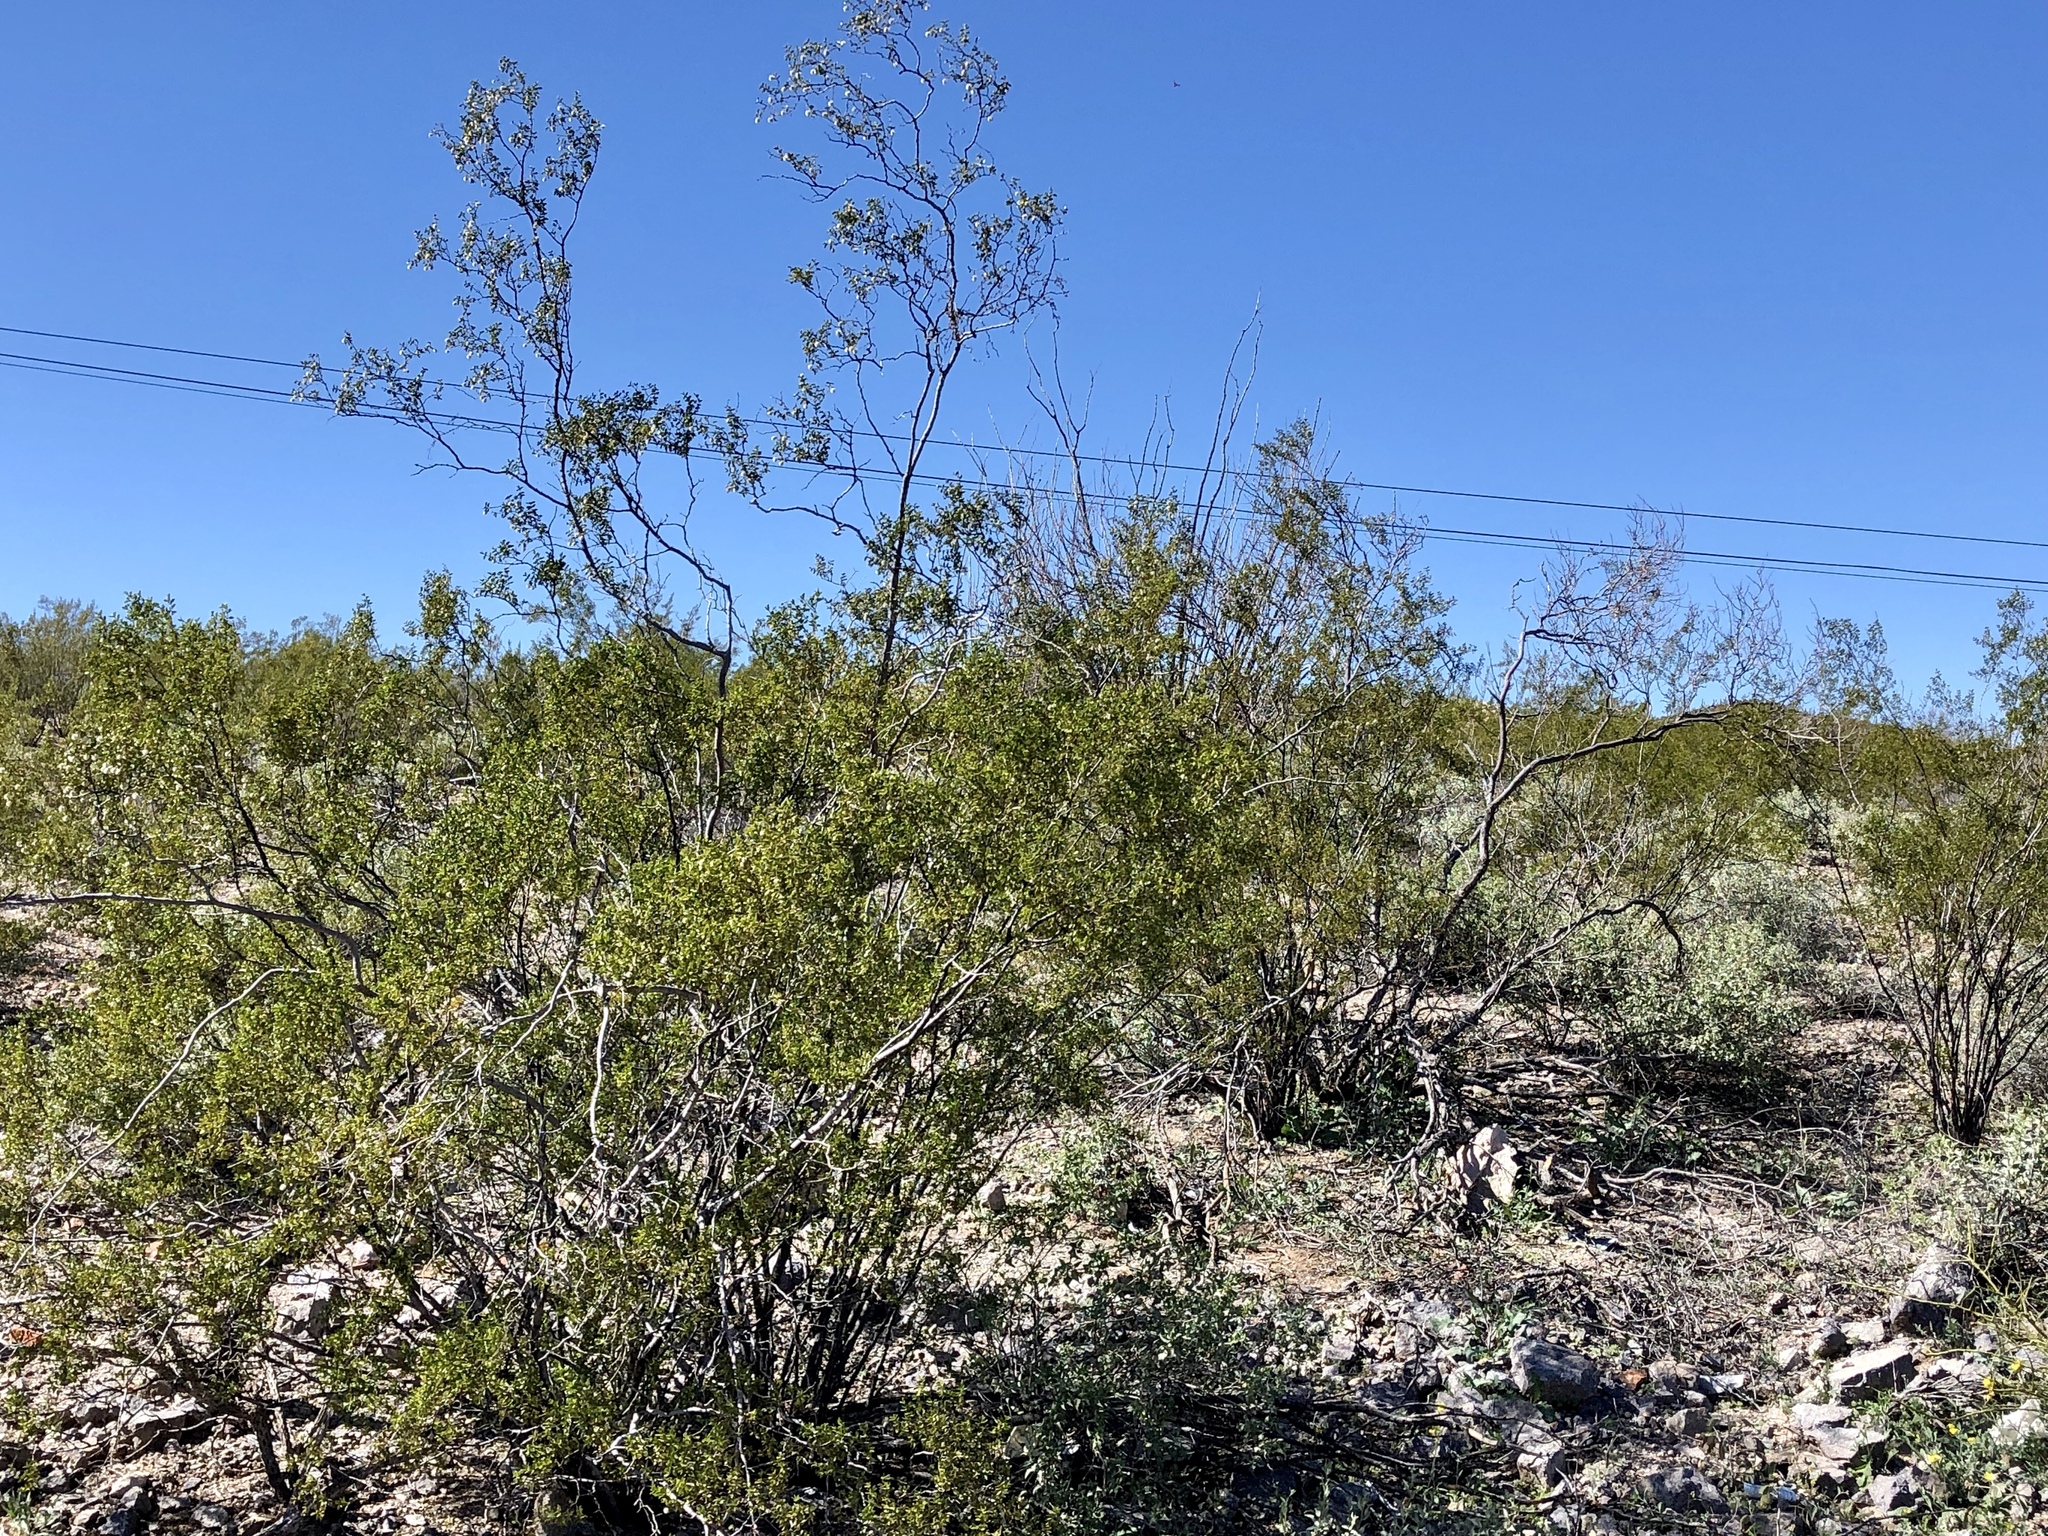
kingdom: Plantae
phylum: Tracheophyta
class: Magnoliopsida
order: Zygophyllales
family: Zygophyllaceae
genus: Larrea
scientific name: Larrea tridentata
